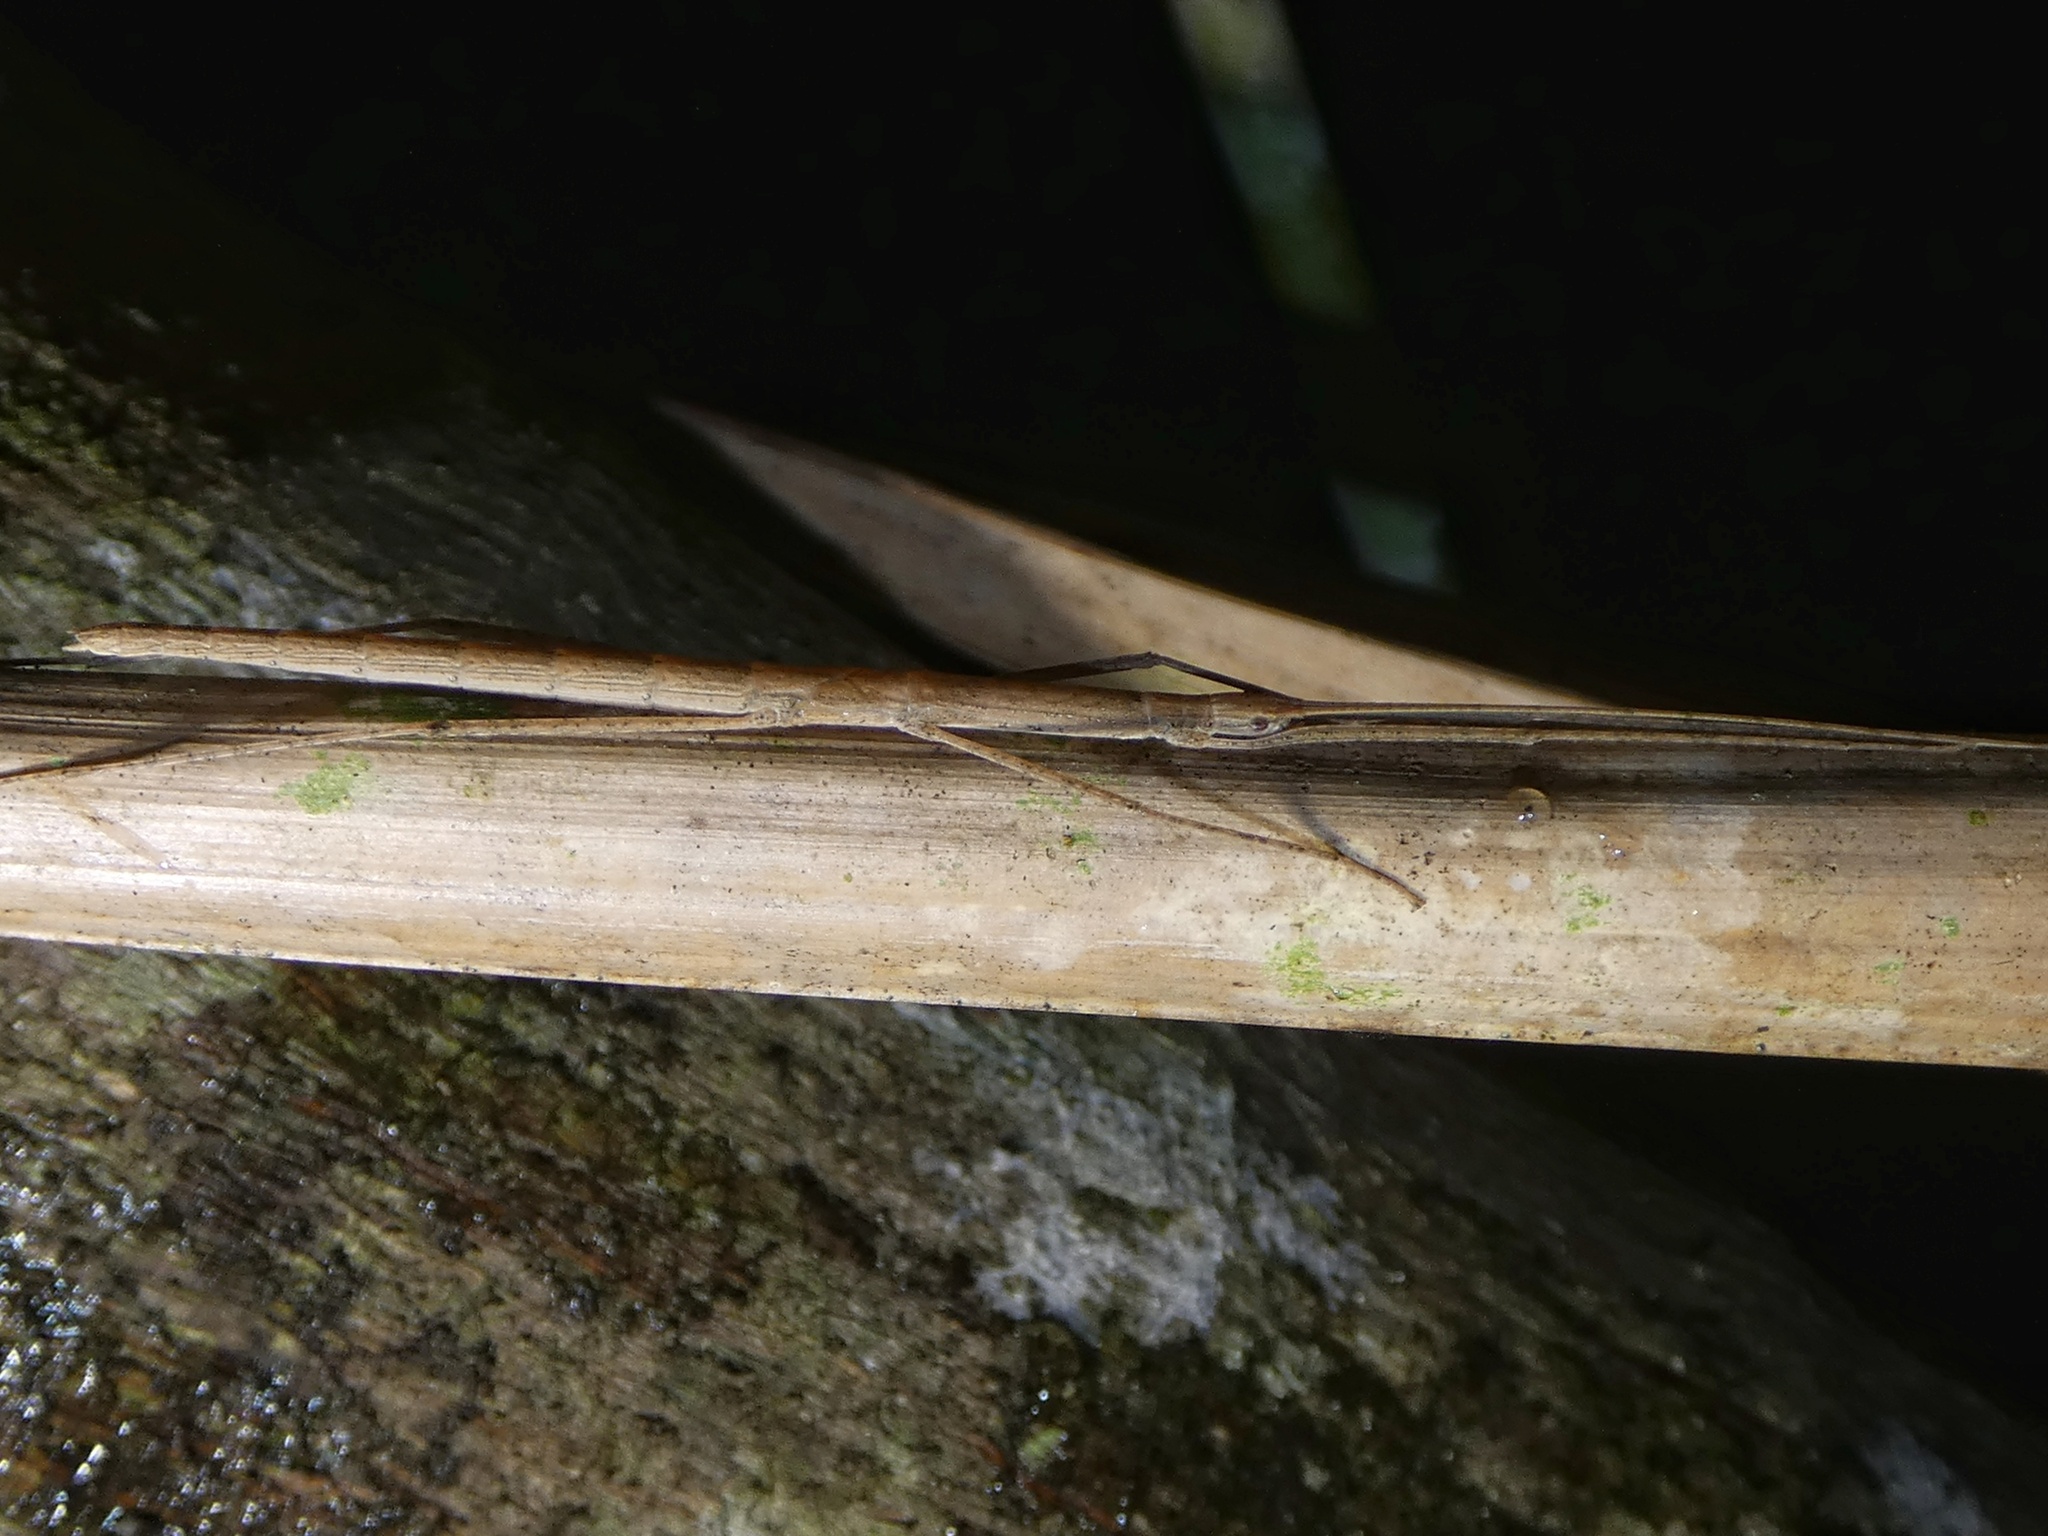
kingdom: Animalia
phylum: Arthropoda
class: Insecta
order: Phasmida
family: Lonchodidae
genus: Sipyloidea
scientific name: Sipyloidea larryi
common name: Hurricane larry stick-insect
